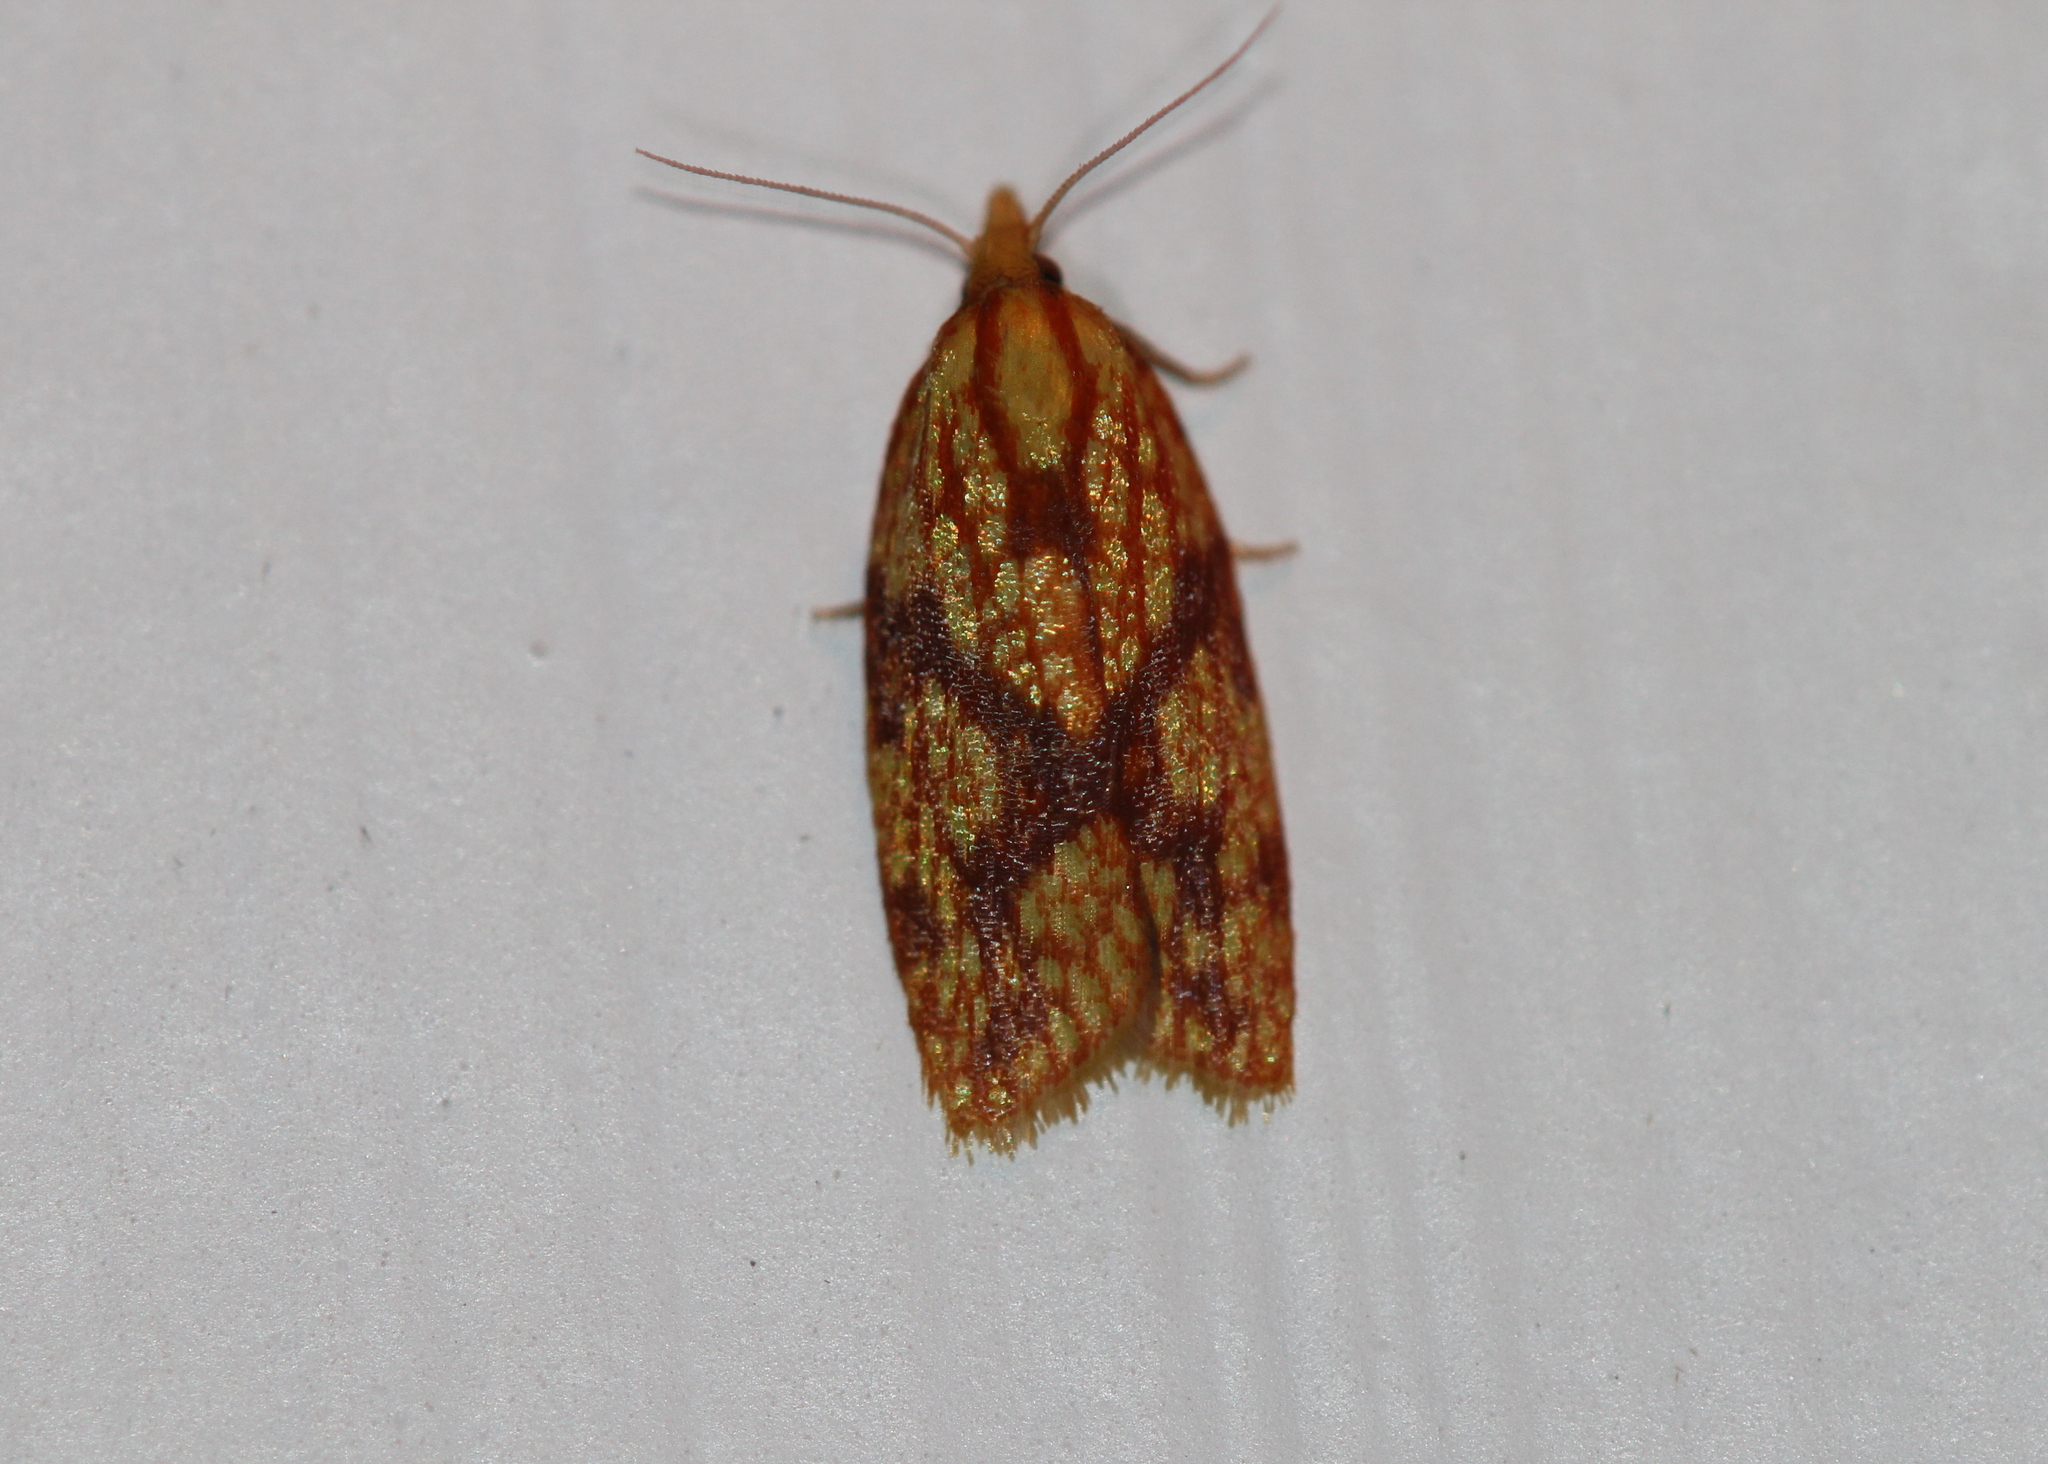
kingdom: Animalia
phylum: Arthropoda
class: Insecta
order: Lepidoptera
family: Tortricidae
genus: Sparganothis
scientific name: Sparganothis sulfureana
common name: Sparganothis fruitworm moth
